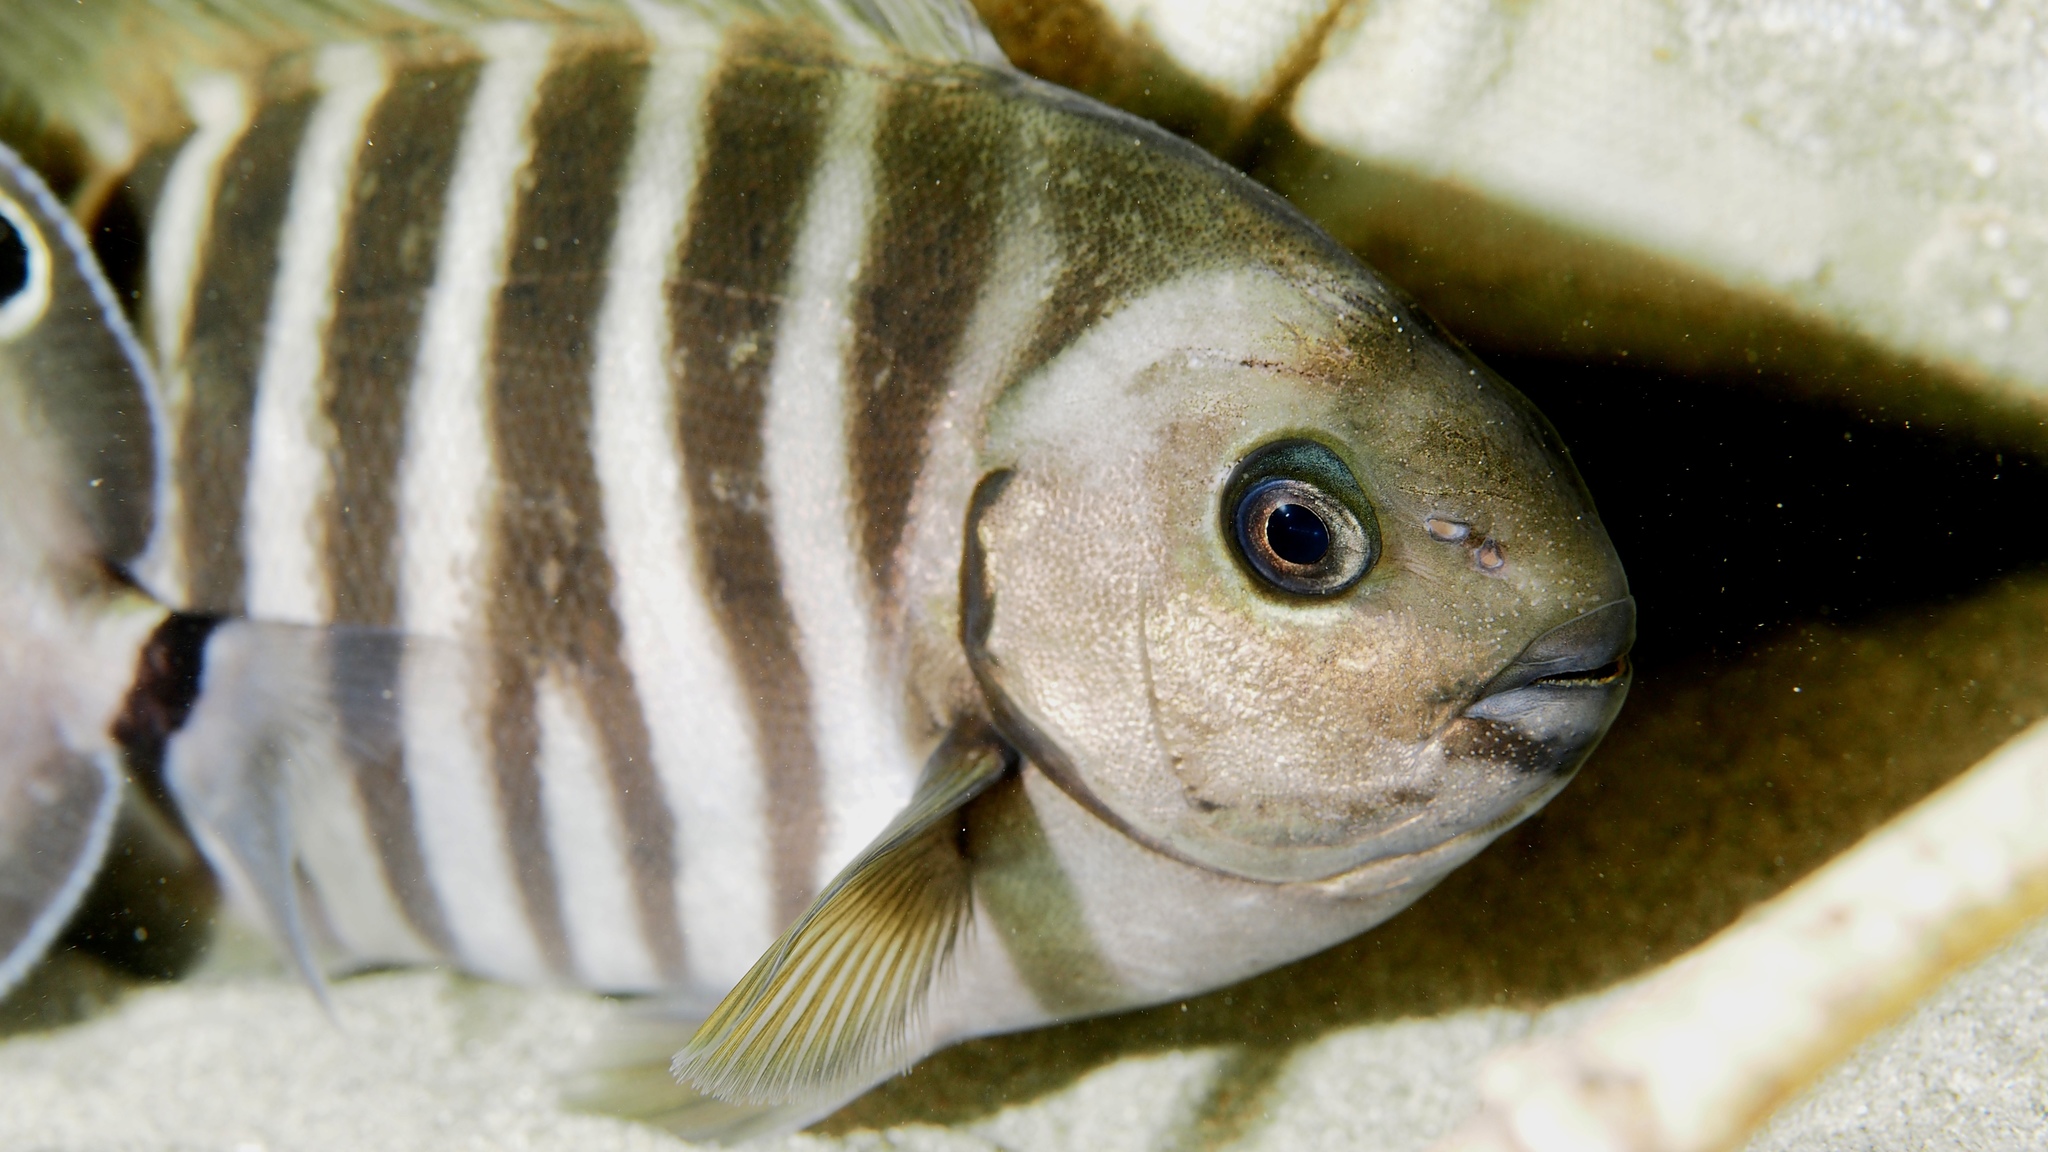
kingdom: Animalia
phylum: Chordata
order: Perciformes
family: Kyphosidae
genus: Girella
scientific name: Girella zebra
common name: Stripey bream
